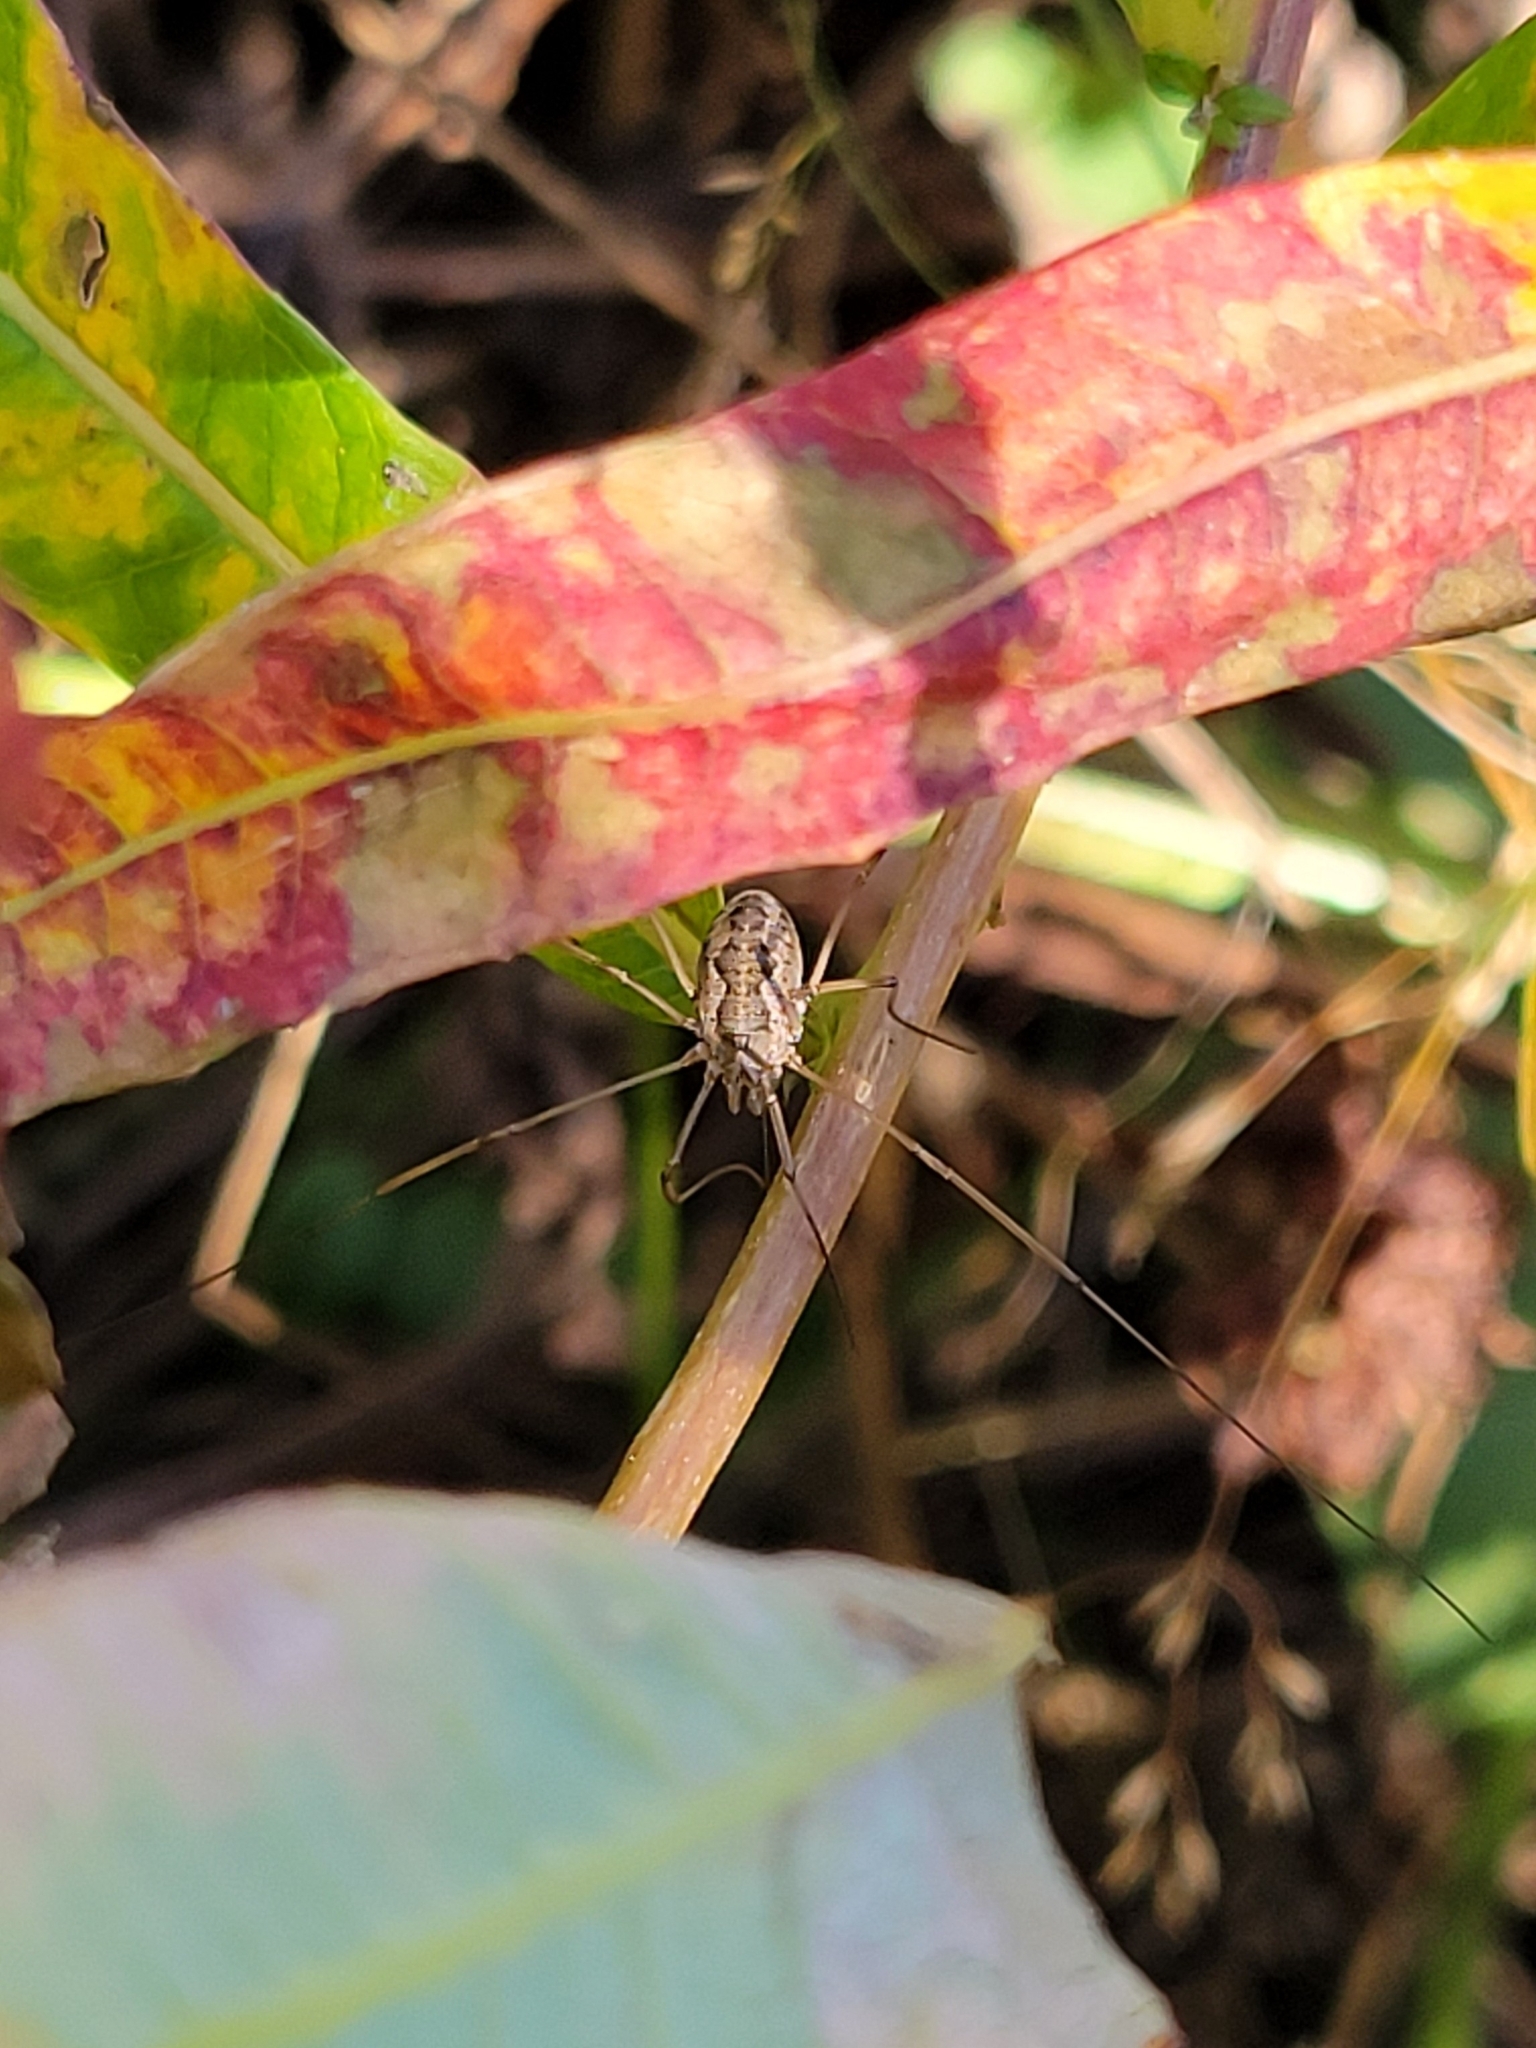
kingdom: Animalia
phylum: Arthropoda
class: Arachnida
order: Opiliones
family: Phalangiidae
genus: Phalangium
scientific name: Phalangium opilio
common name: Daddy longleg
